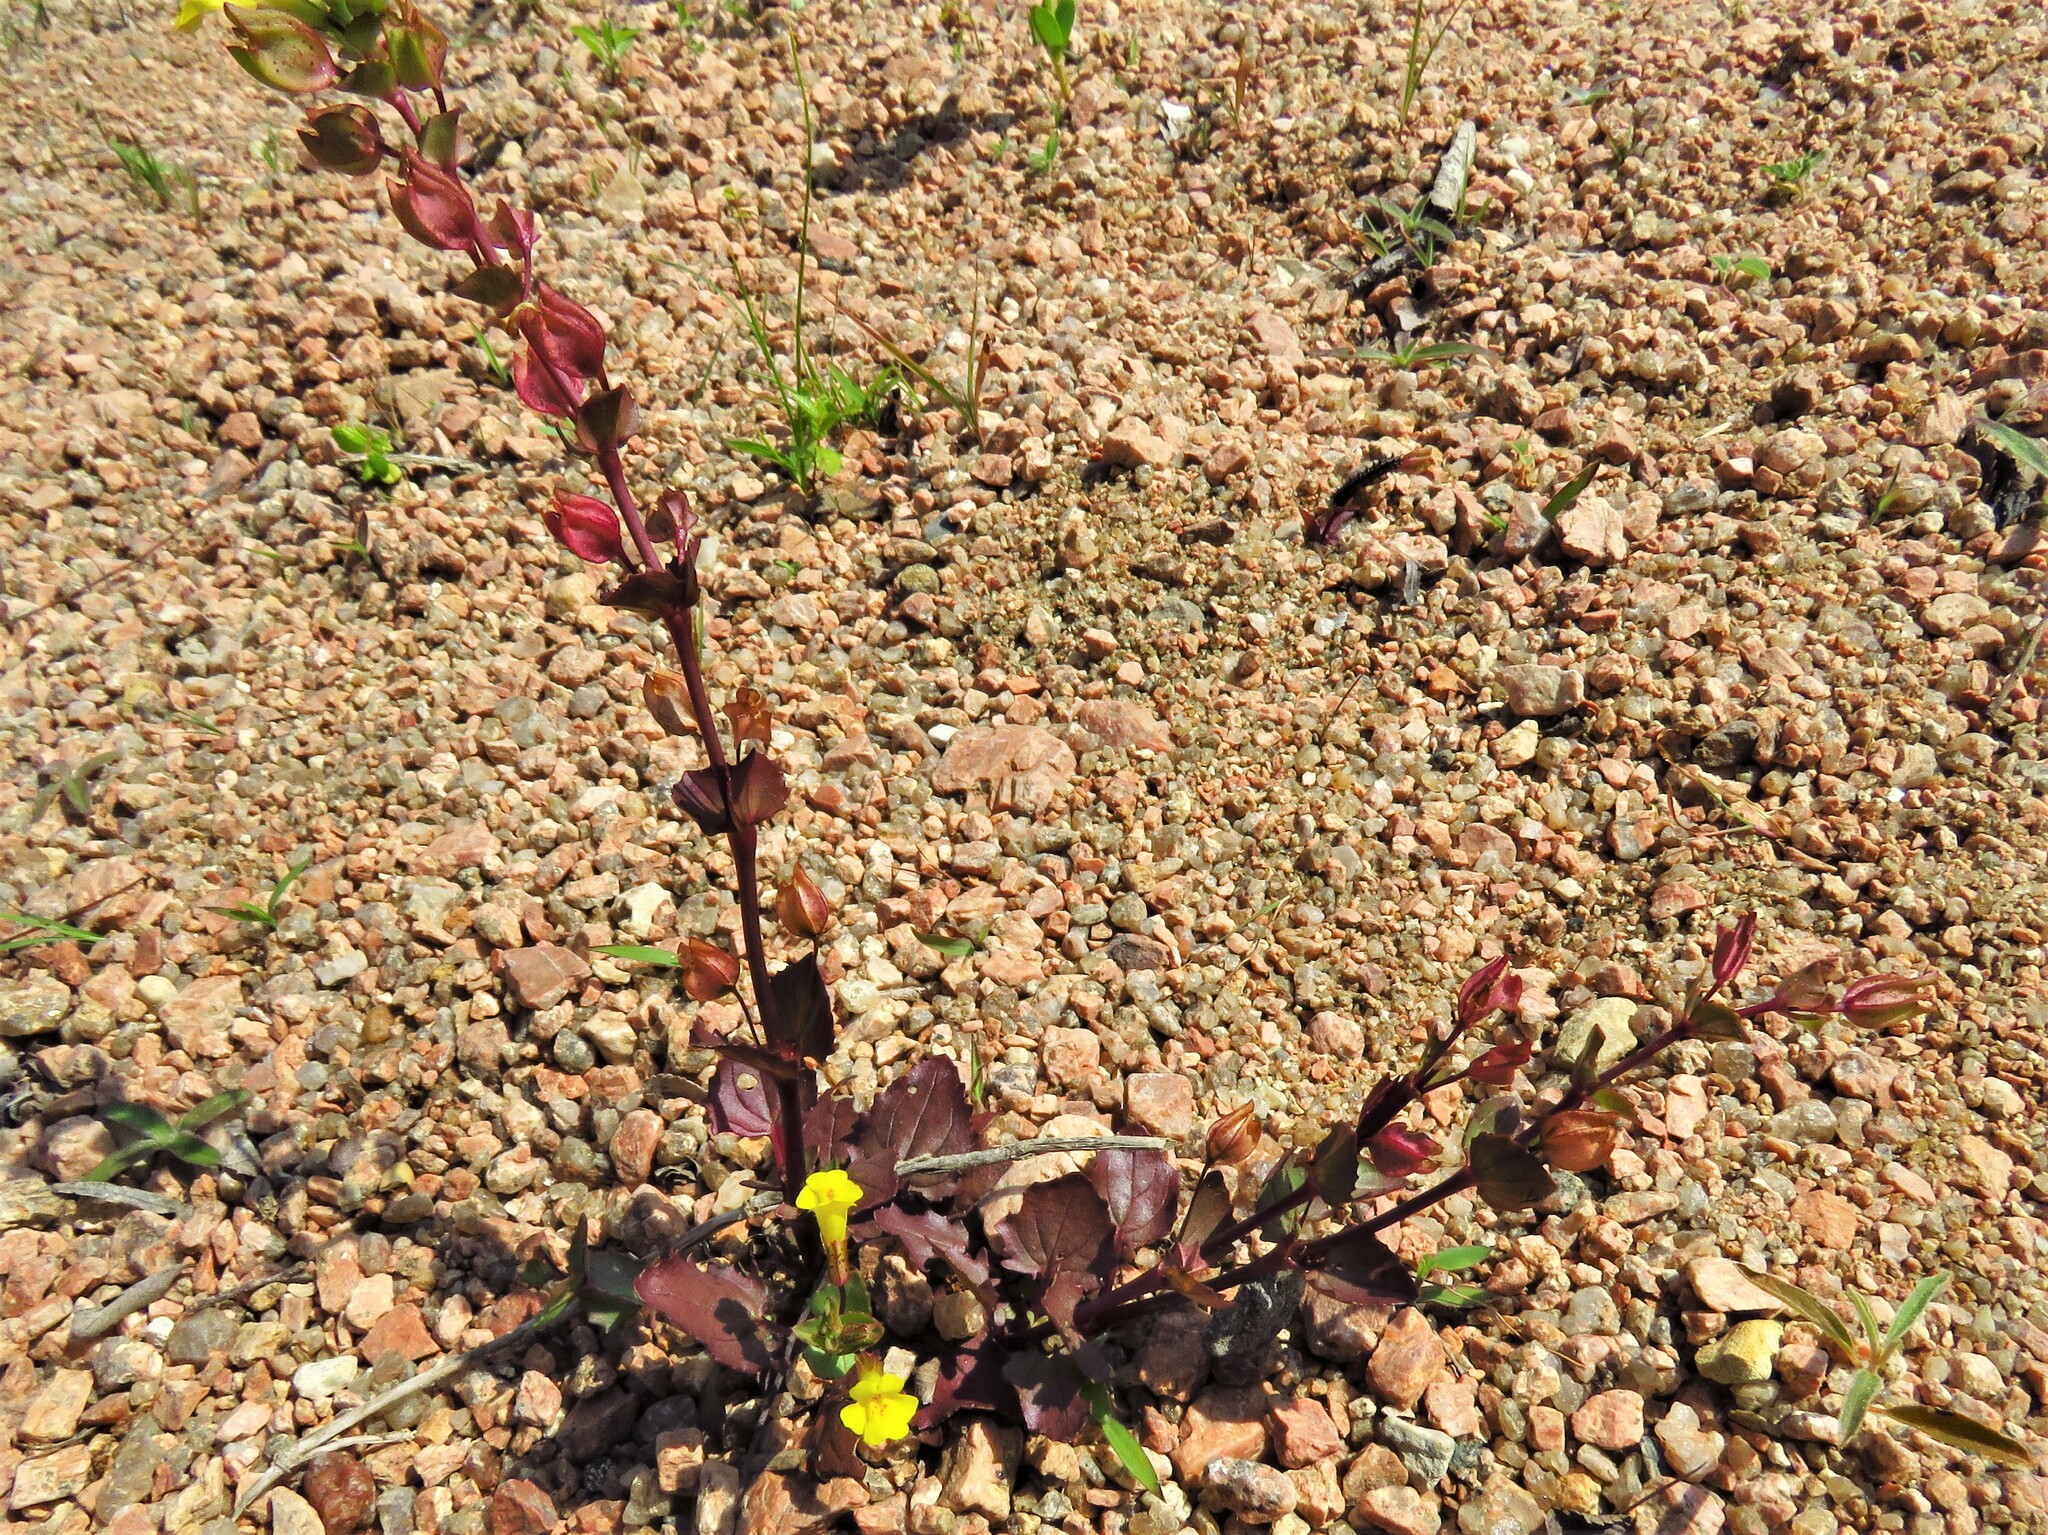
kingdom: Plantae
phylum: Tracheophyta
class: Magnoliopsida
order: Lamiales
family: Phrymaceae
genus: Erythranthe
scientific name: Erythranthe inamoena
